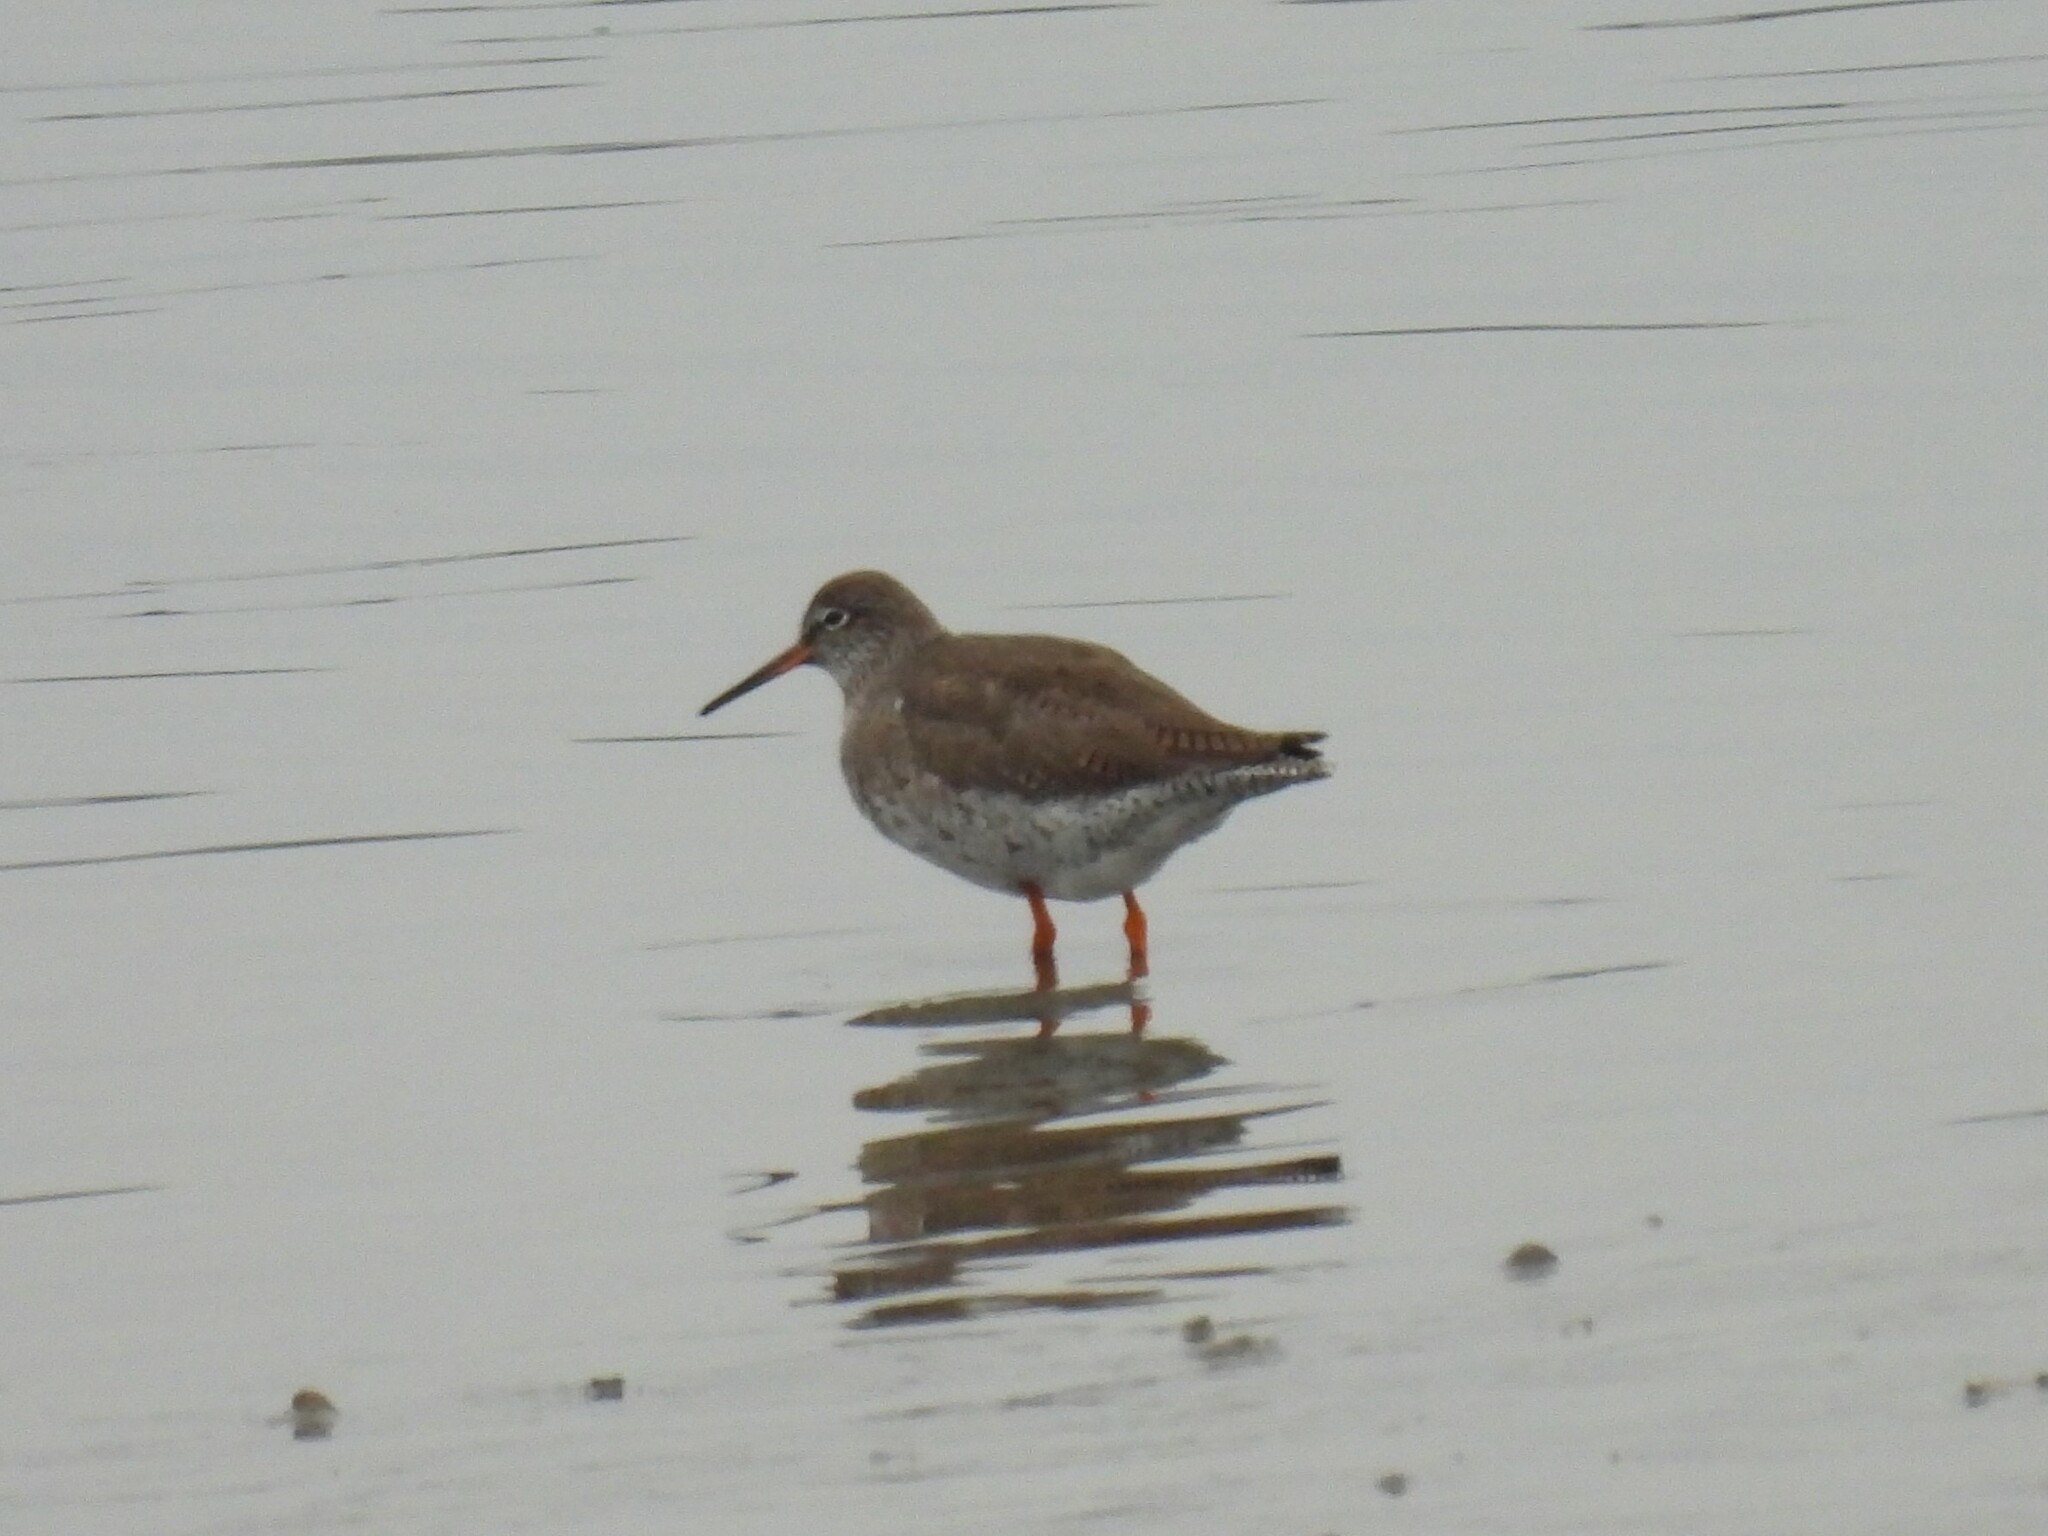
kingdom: Animalia
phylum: Chordata
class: Aves
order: Charadriiformes
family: Scolopacidae
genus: Tringa
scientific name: Tringa totanus
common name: Common redshank
